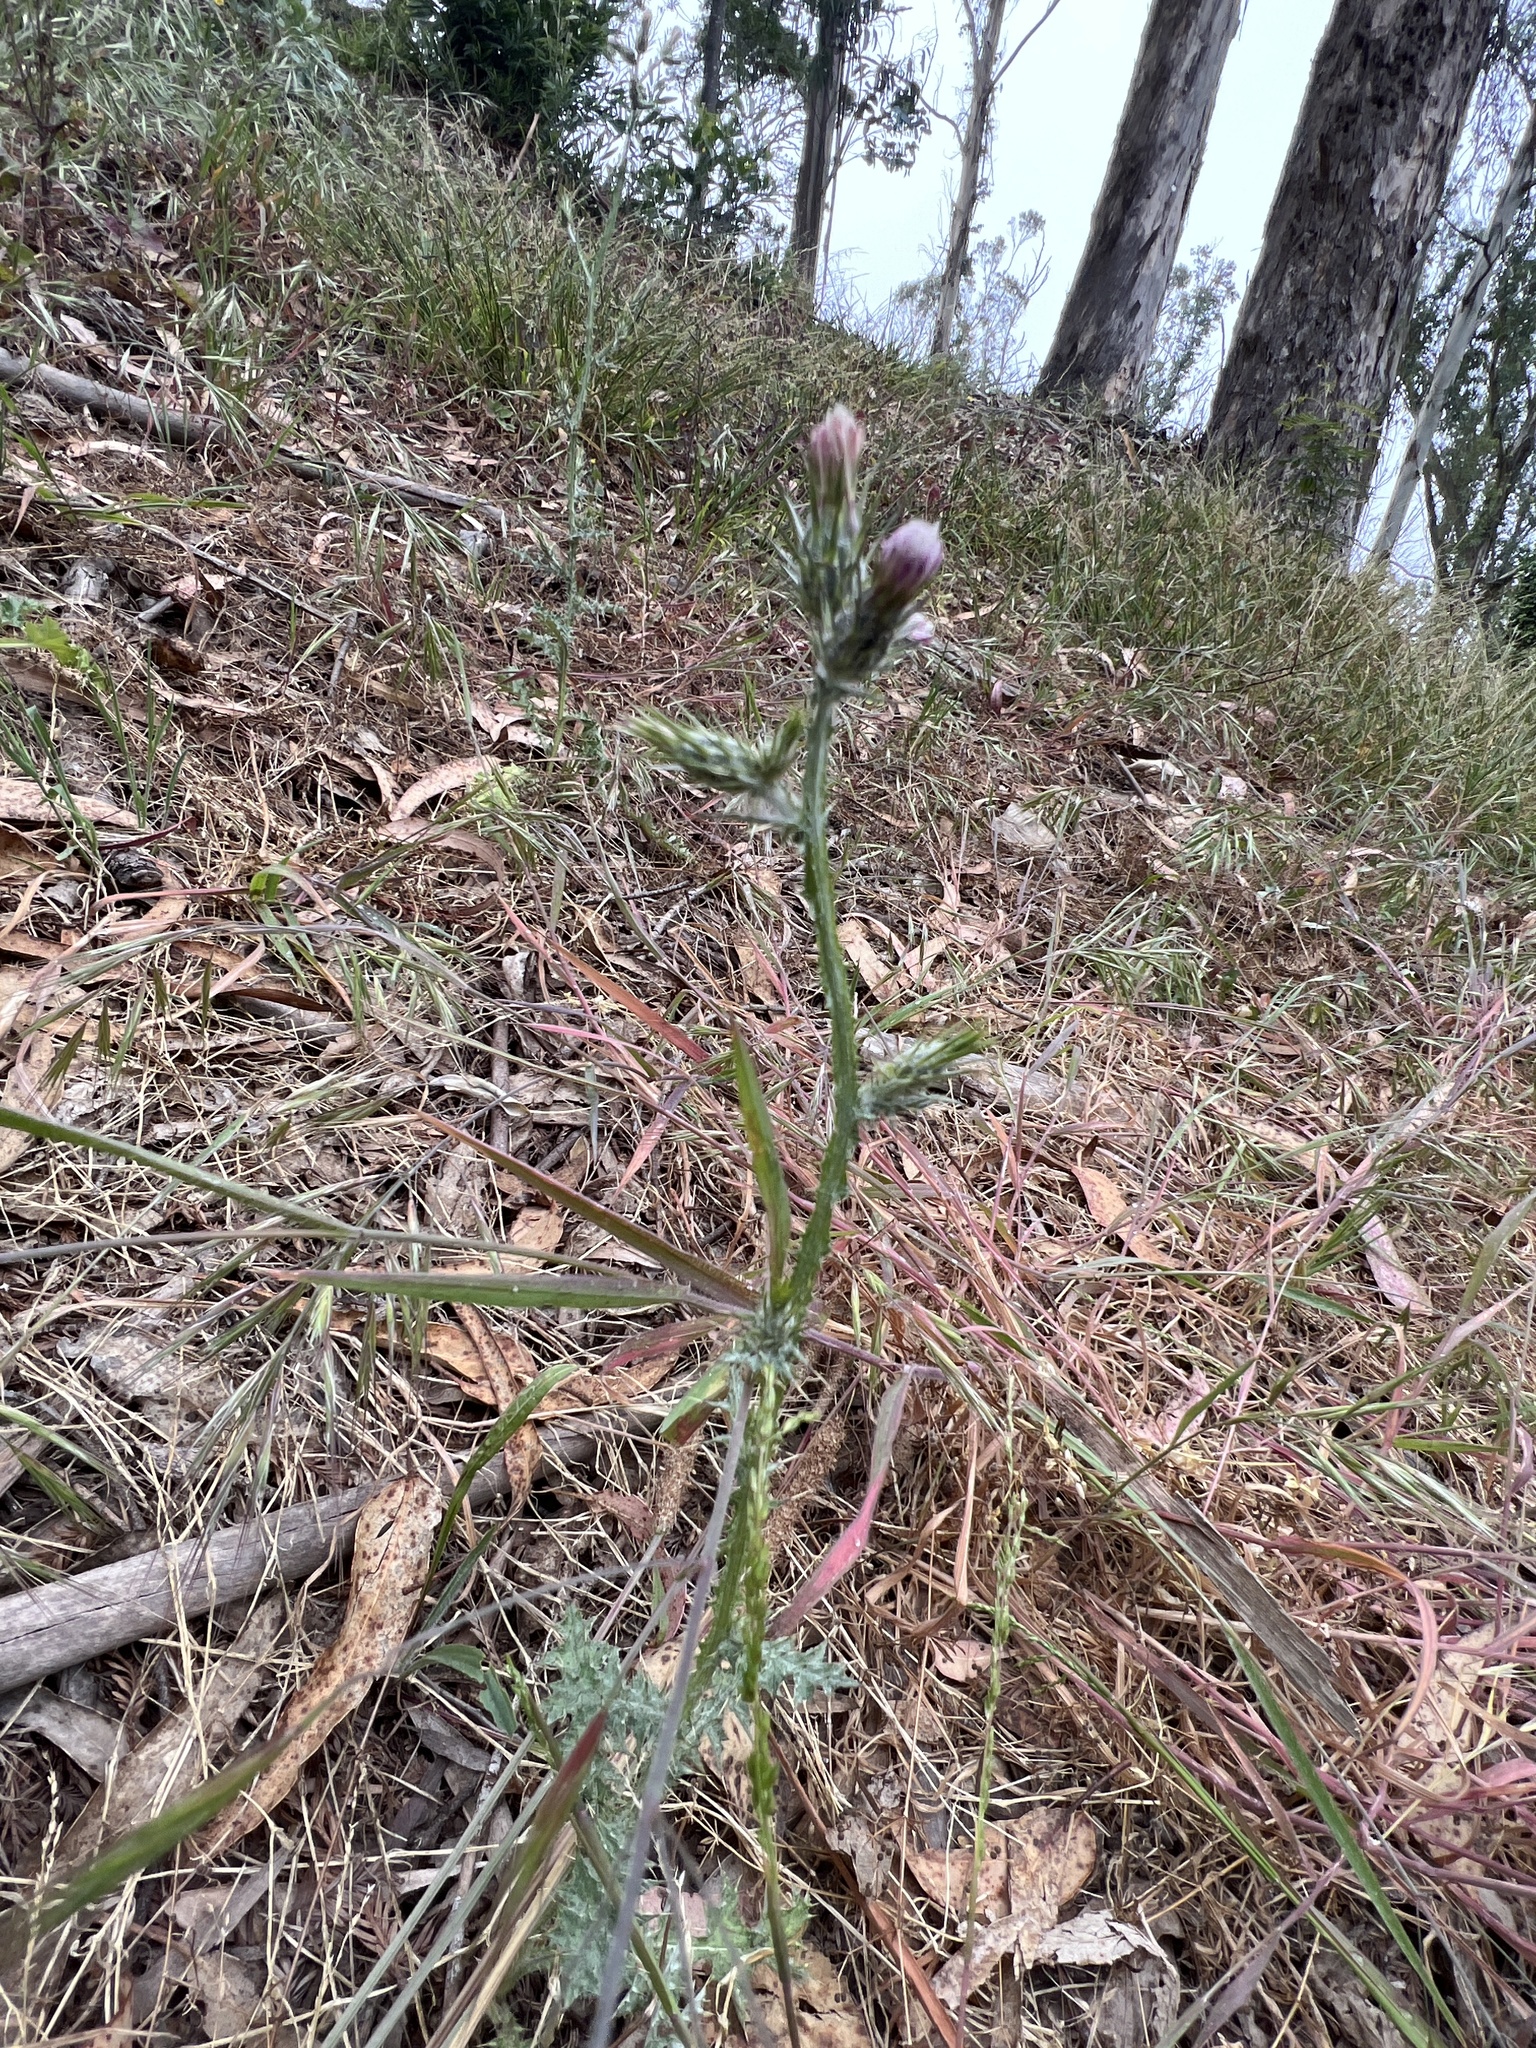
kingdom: Plantae
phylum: Tracheophyta
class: Magnoliopsida
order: Asterales
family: Asteraceae
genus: Carduus
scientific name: Carduus pycnocephalus
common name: Plymouth thistle
